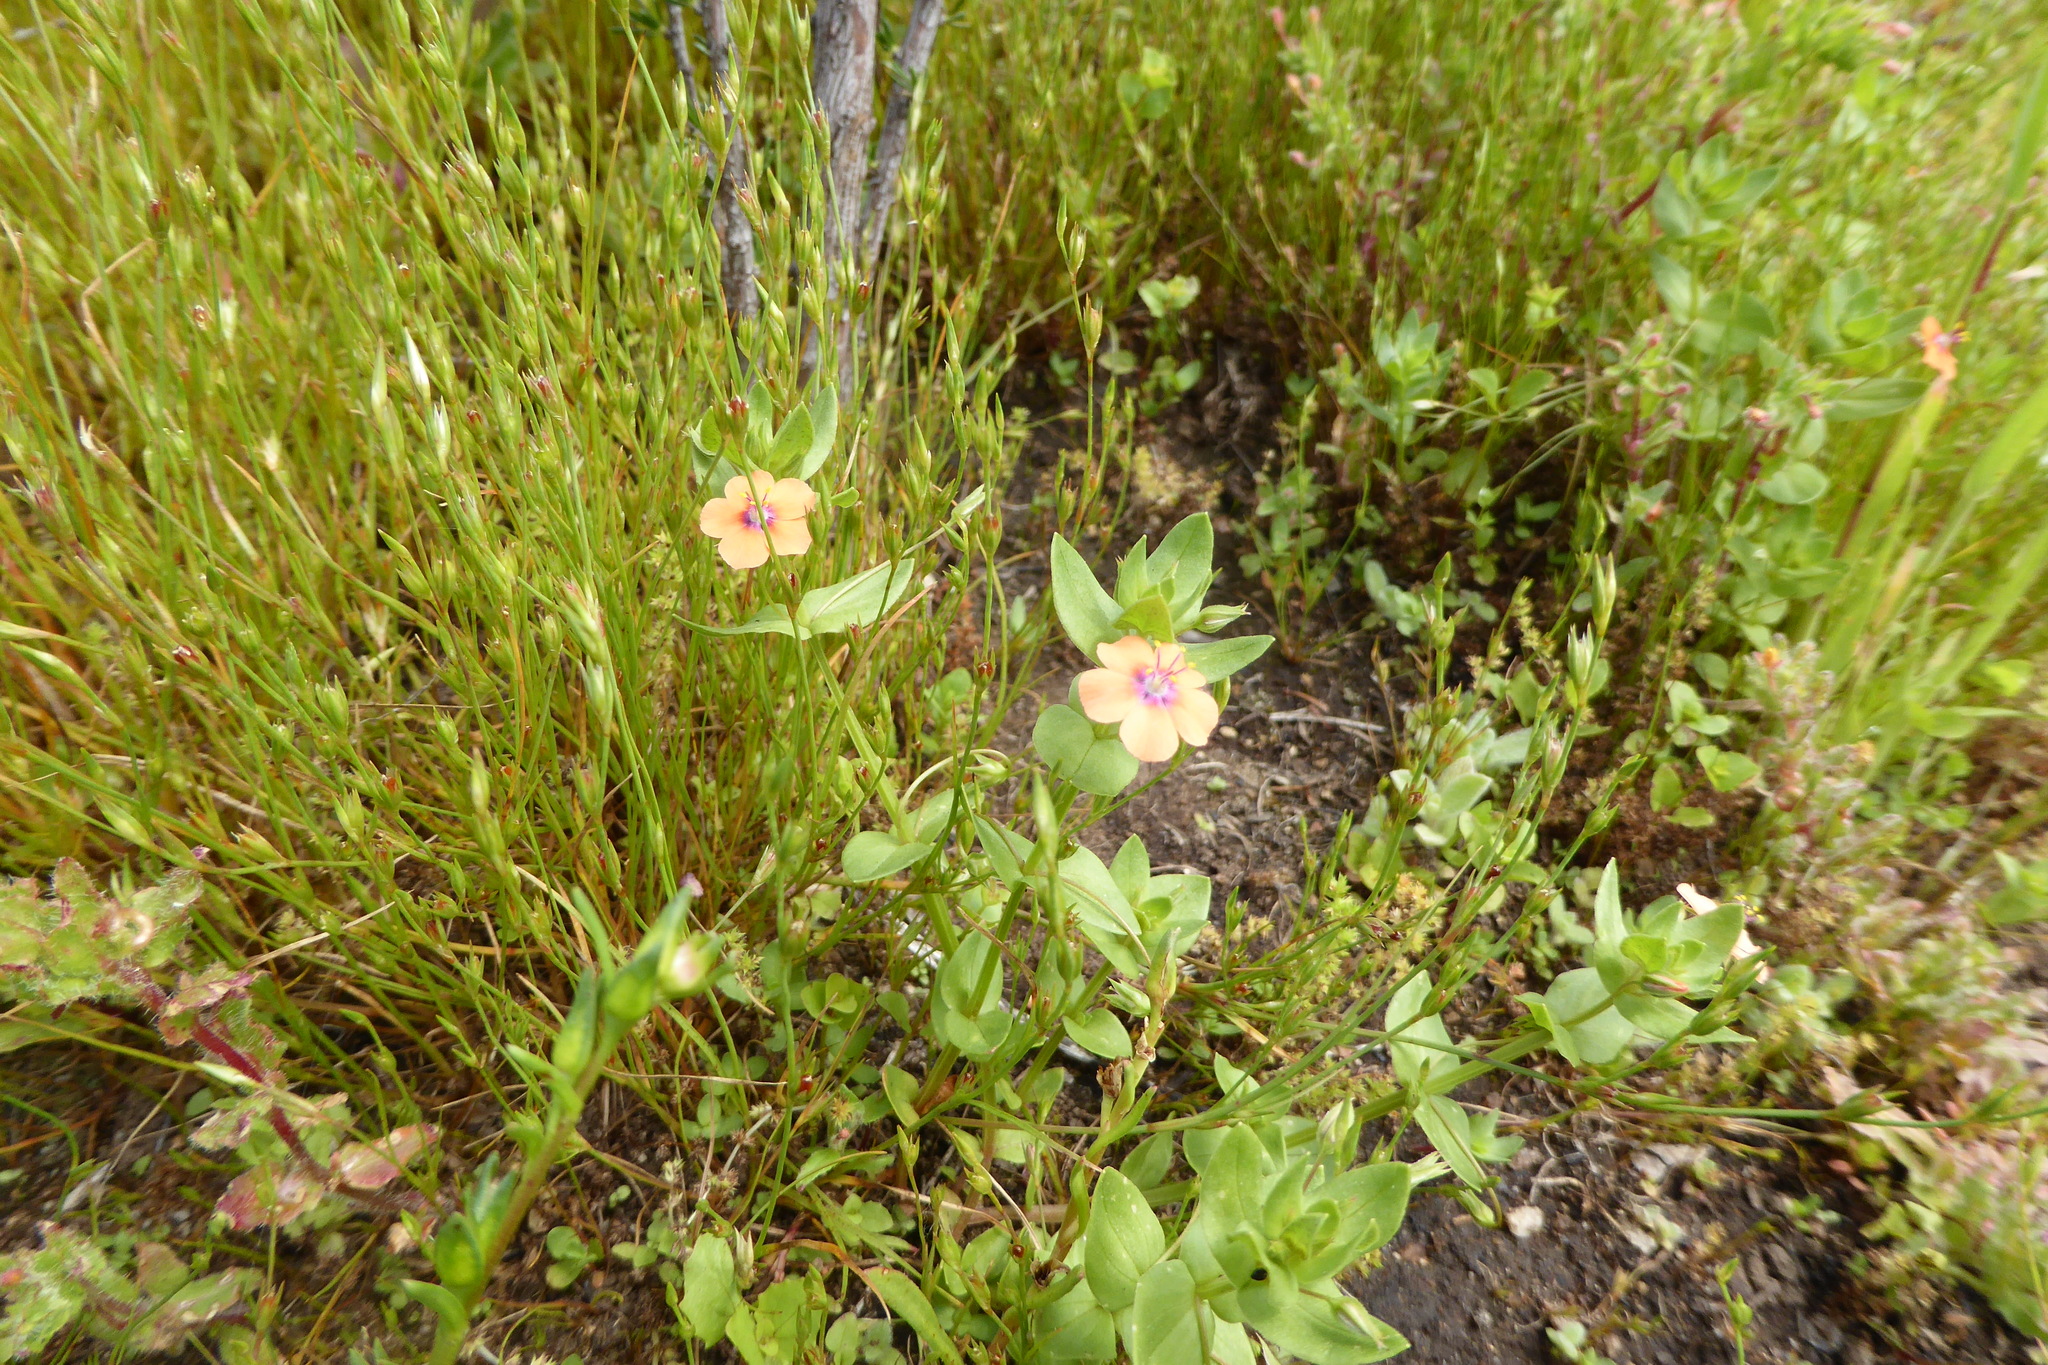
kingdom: Plantae
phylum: Tracheophyta
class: Magnoliopsida
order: Ericales
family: Primulaceae
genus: Lysimachia
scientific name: Lysimachia arvensis
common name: Scarlet pimpernel
